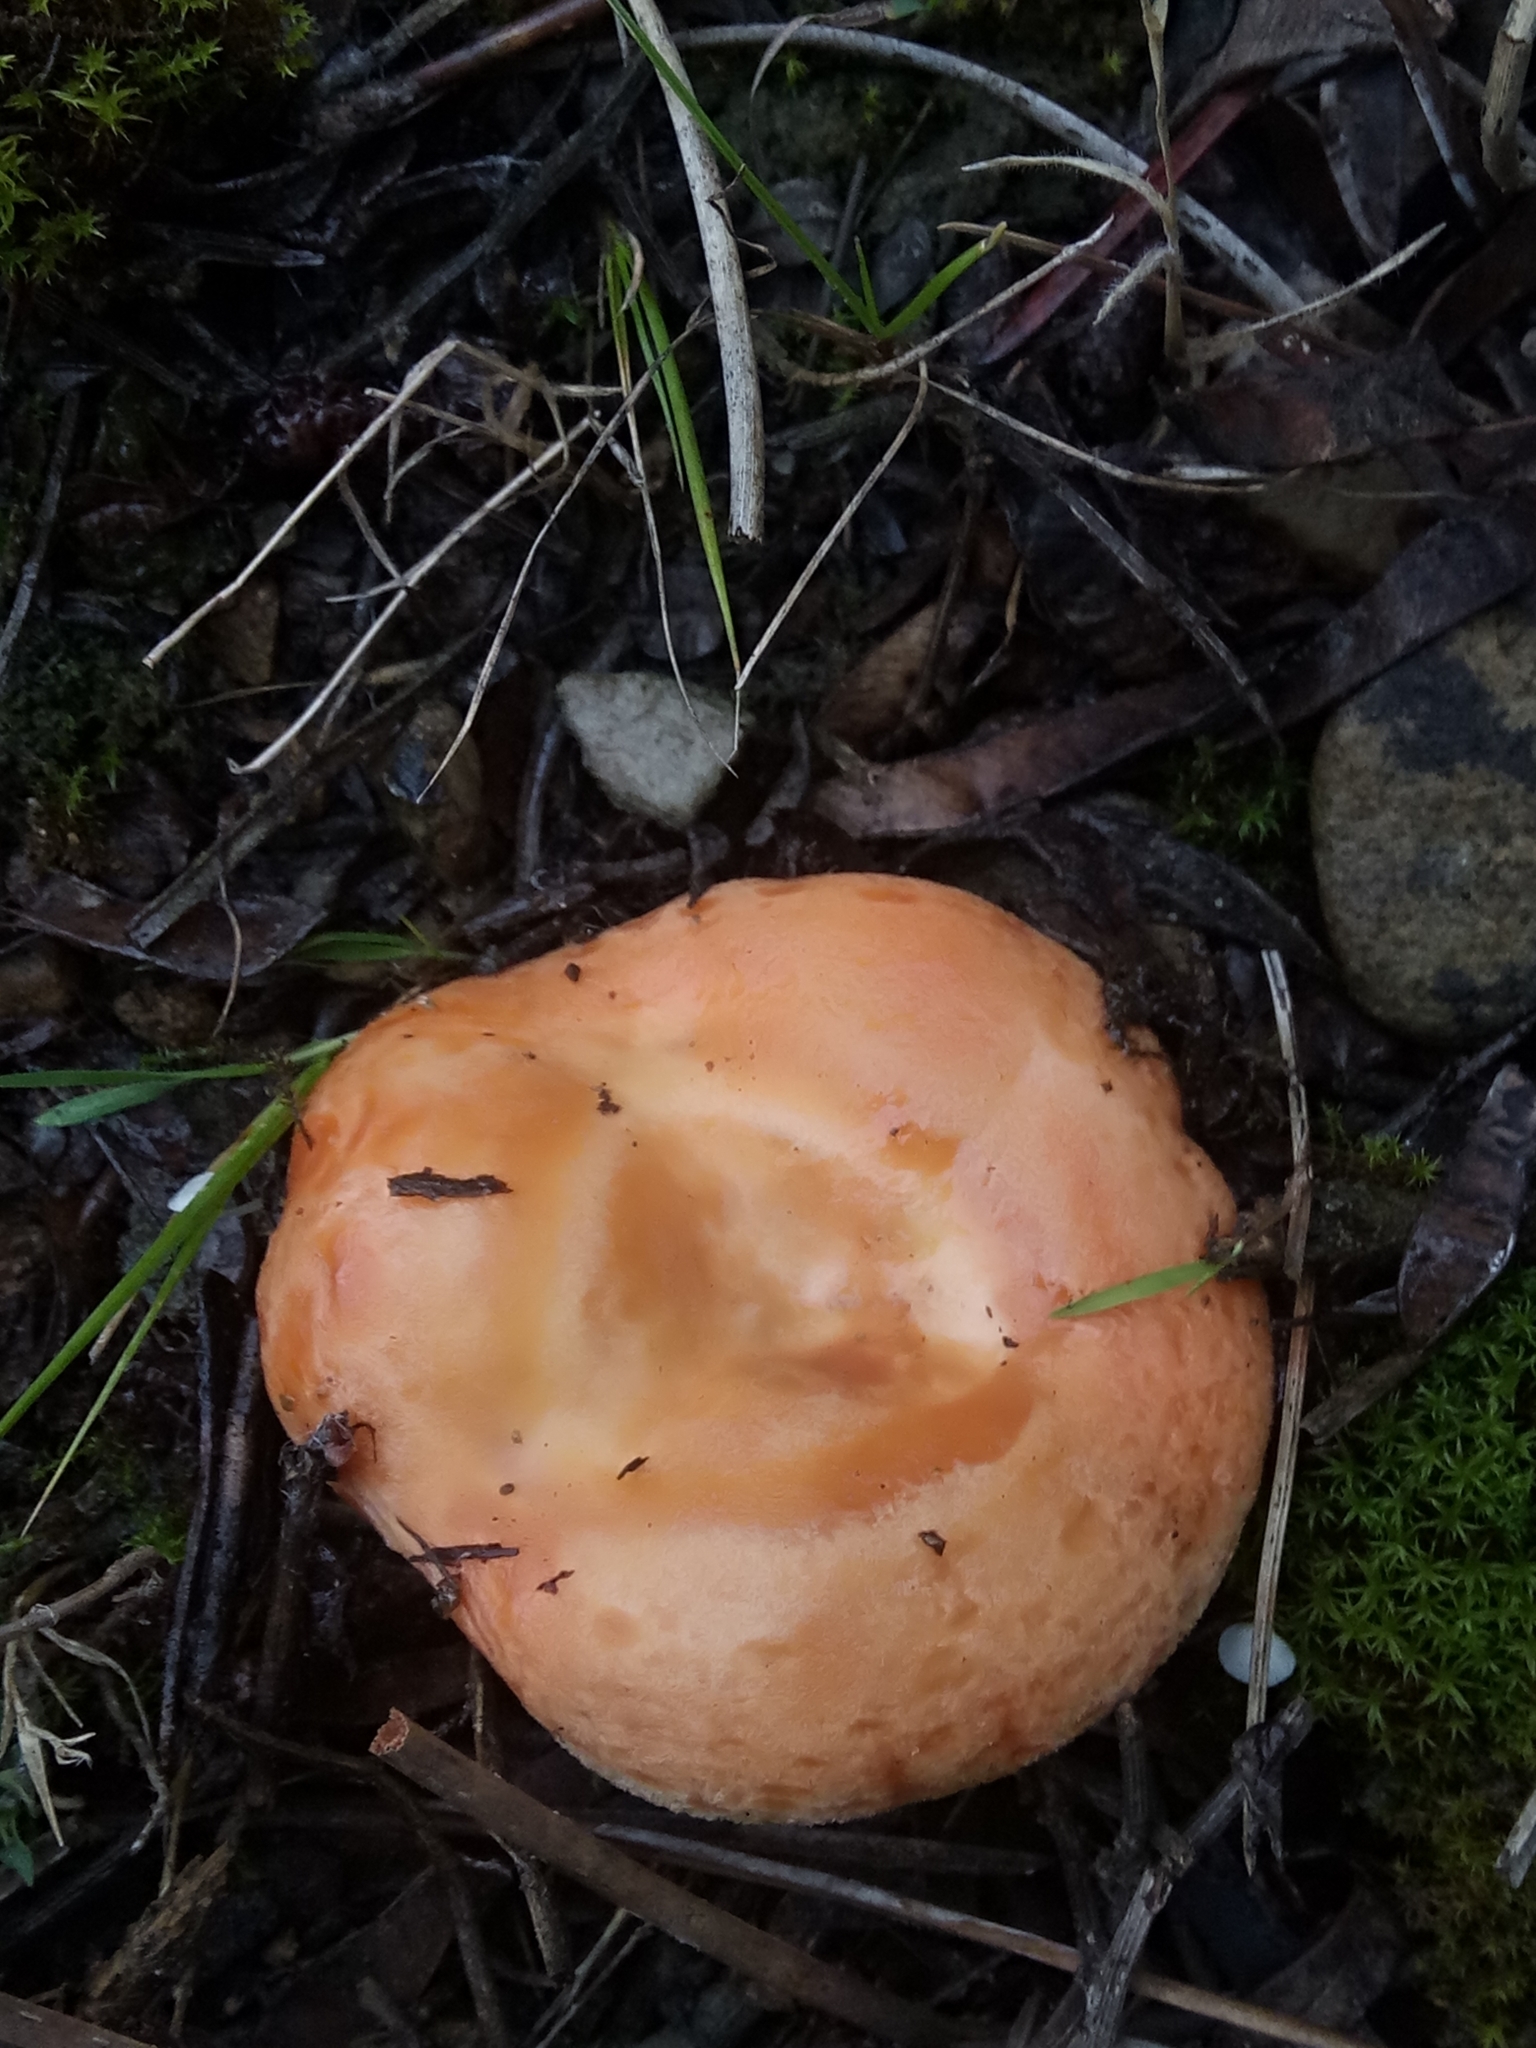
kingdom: Fungi
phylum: Basidiomycota
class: Agaricomycetes
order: Russulales
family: Russulaceae
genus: Lactarius
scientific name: Lactarius deliciosus
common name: Saffron milk-cap
